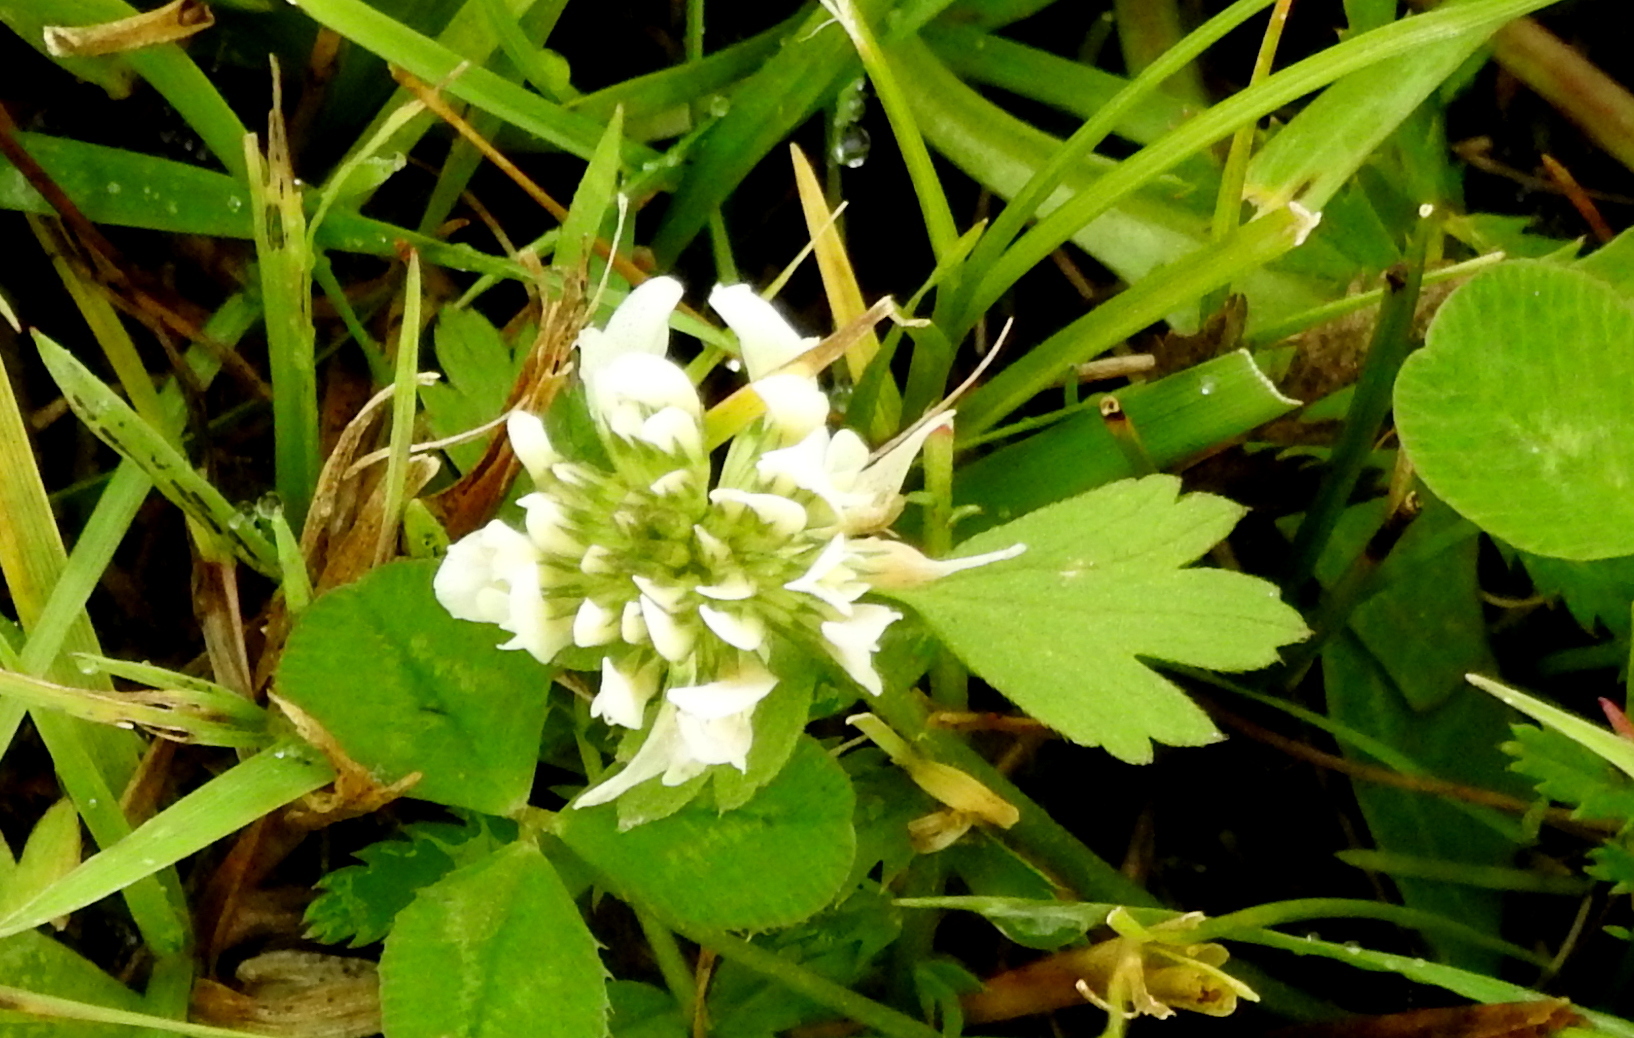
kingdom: Plantae
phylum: Tracheophyta
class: Magnoliopsida
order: Fabales
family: Fabaceae
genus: Trifolium
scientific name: Trifolium repens
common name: White clover
